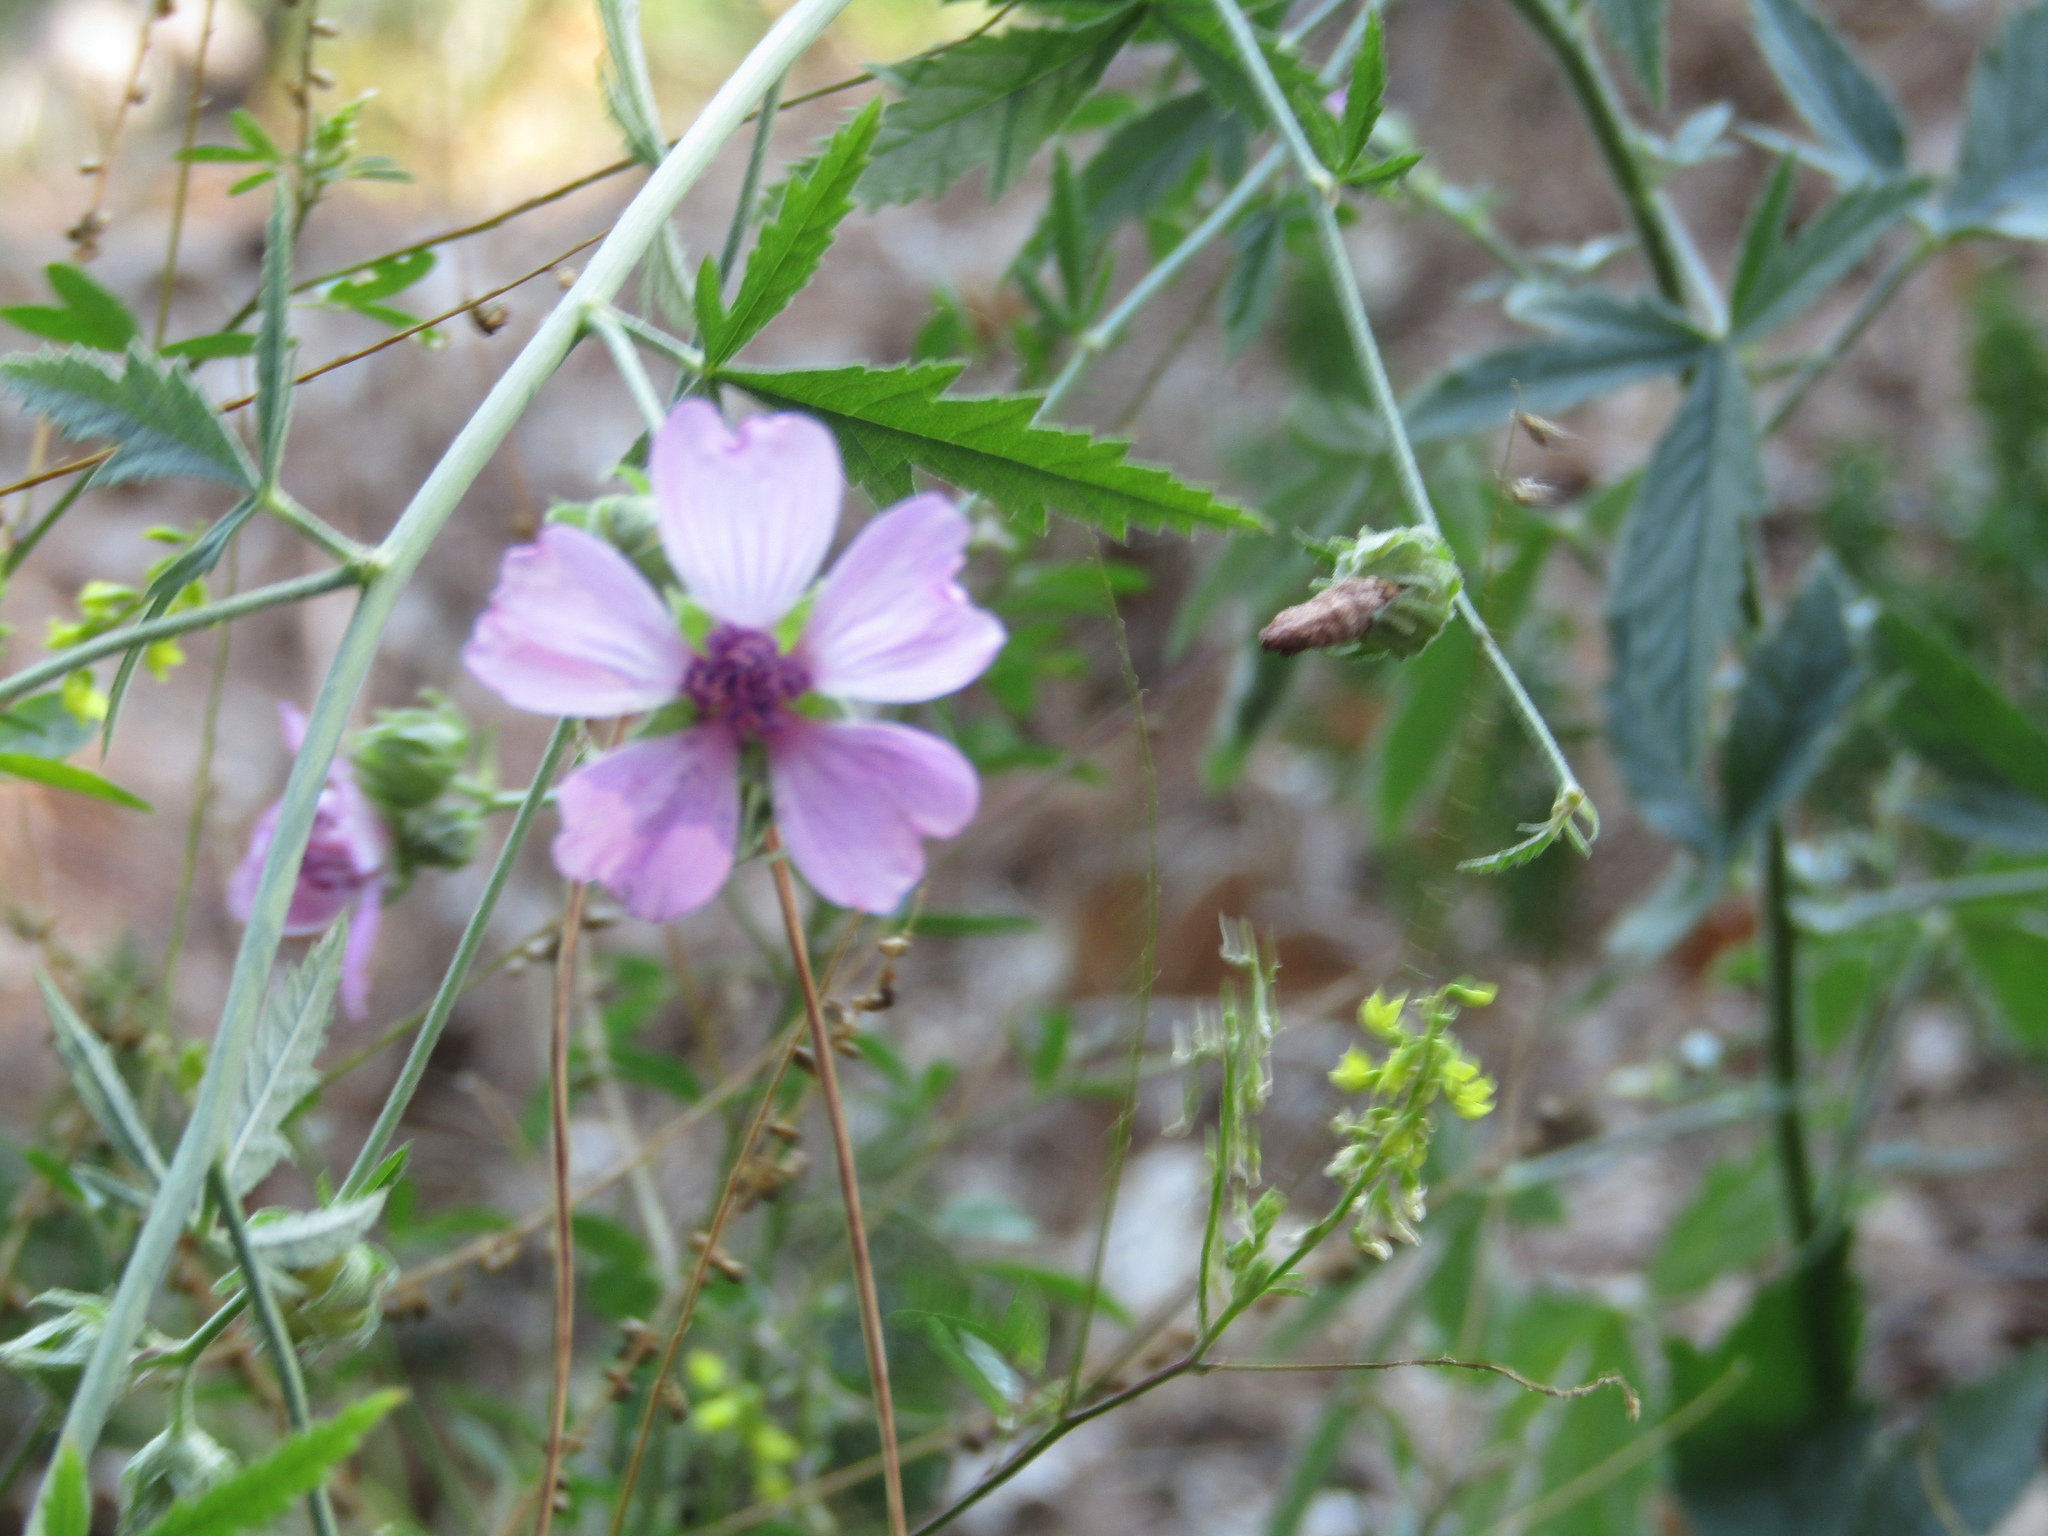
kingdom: Plantae
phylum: Tracheophyta
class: Magnoliopsida
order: Malvales
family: Malvaceae
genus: Althaea
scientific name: Althaea cannabina
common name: Palm-leaf marshmallow
